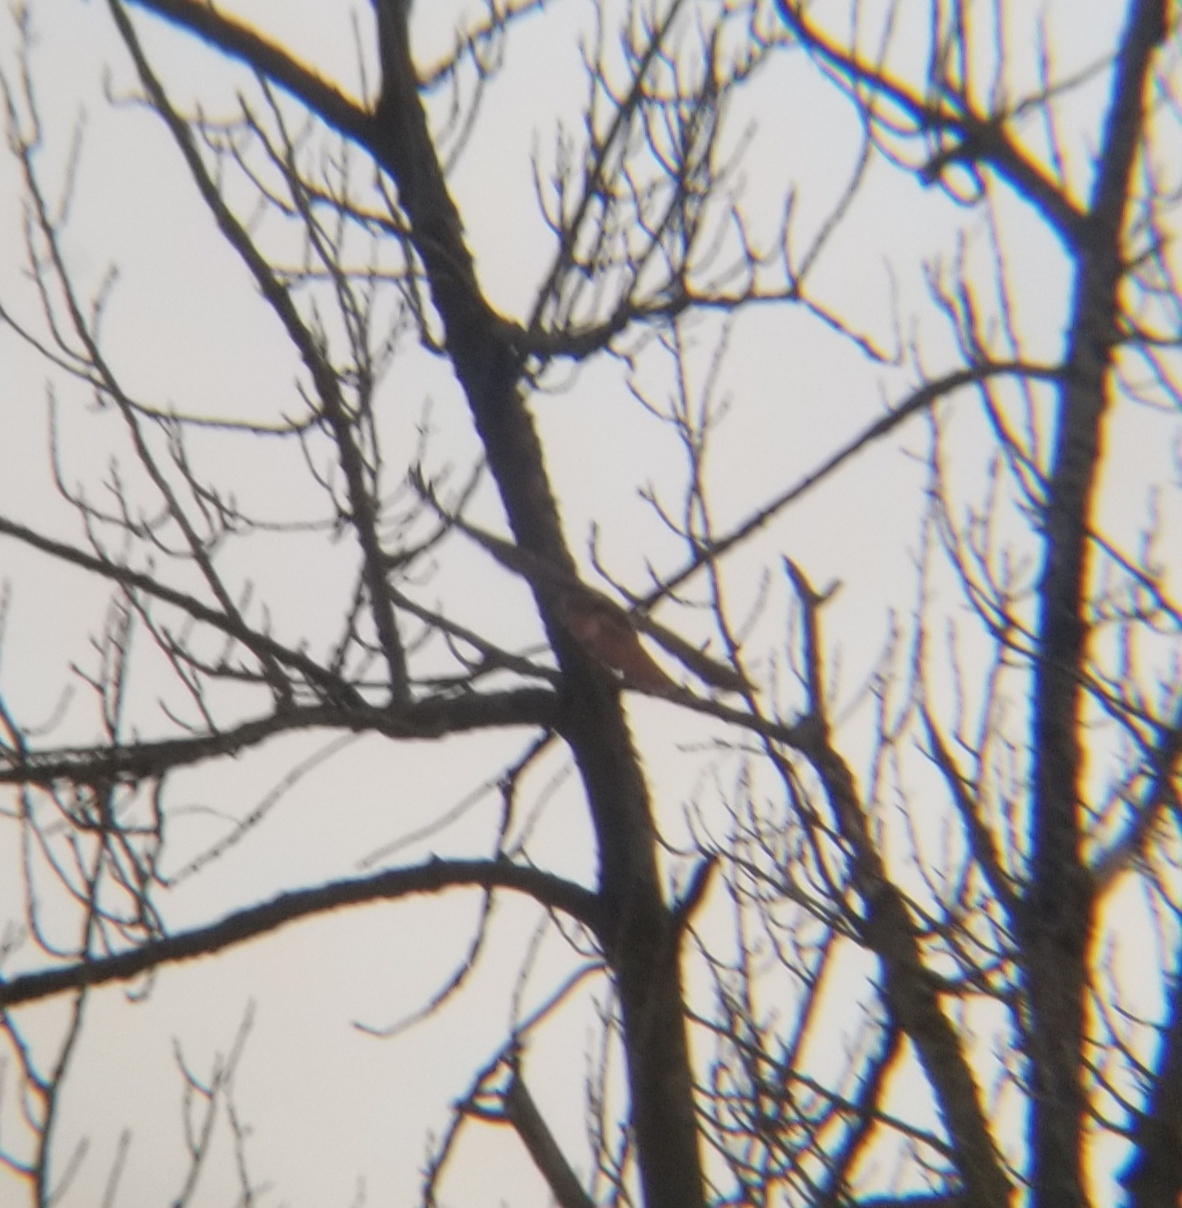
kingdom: Animalia
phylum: Chordata
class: Aves
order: Accipitriformes
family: Accipitridae
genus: Buteo
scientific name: Buteo jamaicensis
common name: Red-tailed hawk
